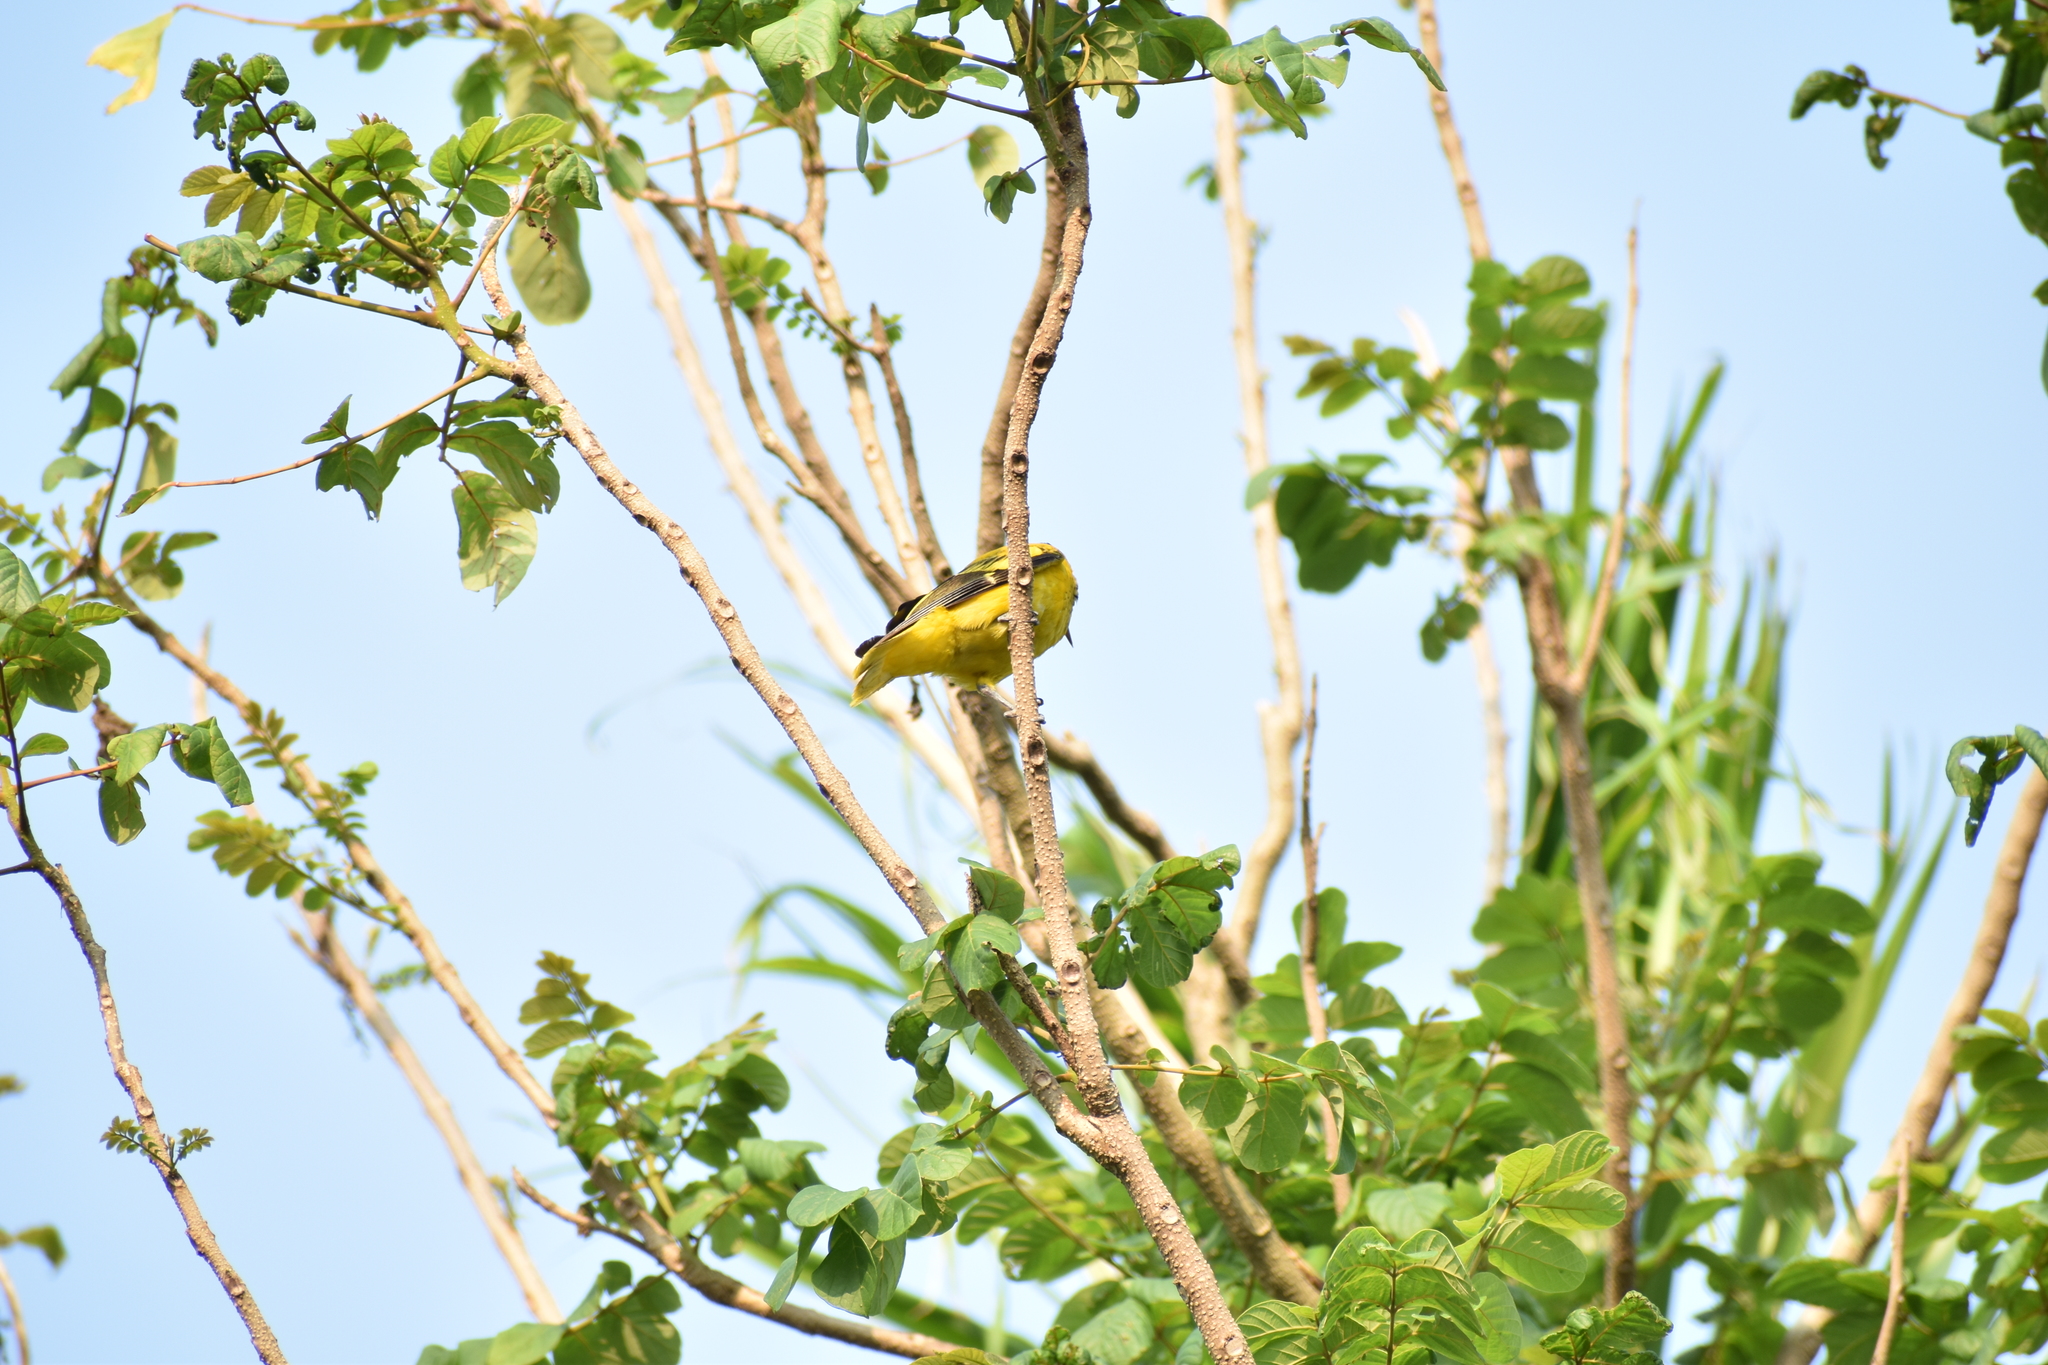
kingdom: Animalia
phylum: Chordata
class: Aves
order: Passeriformes
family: Oriolidae
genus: Oriolus
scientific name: Oriolus xanthornus
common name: Black-hooded oriole
